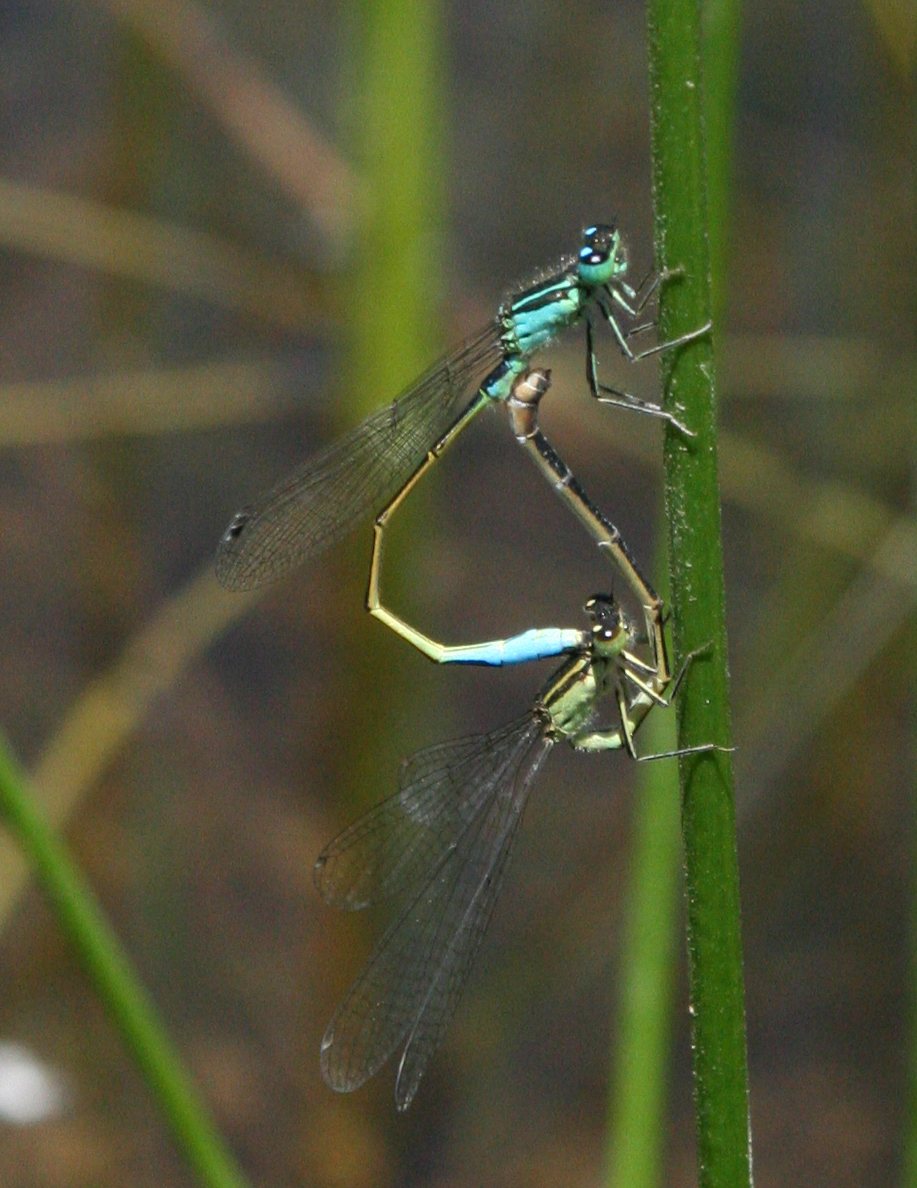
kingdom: Animalia
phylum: Arthropoda
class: Insecta
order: Odonata
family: Coenagrionidae
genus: Ischnura
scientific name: Ischnura elegans
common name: Blue-tailed damselfly
